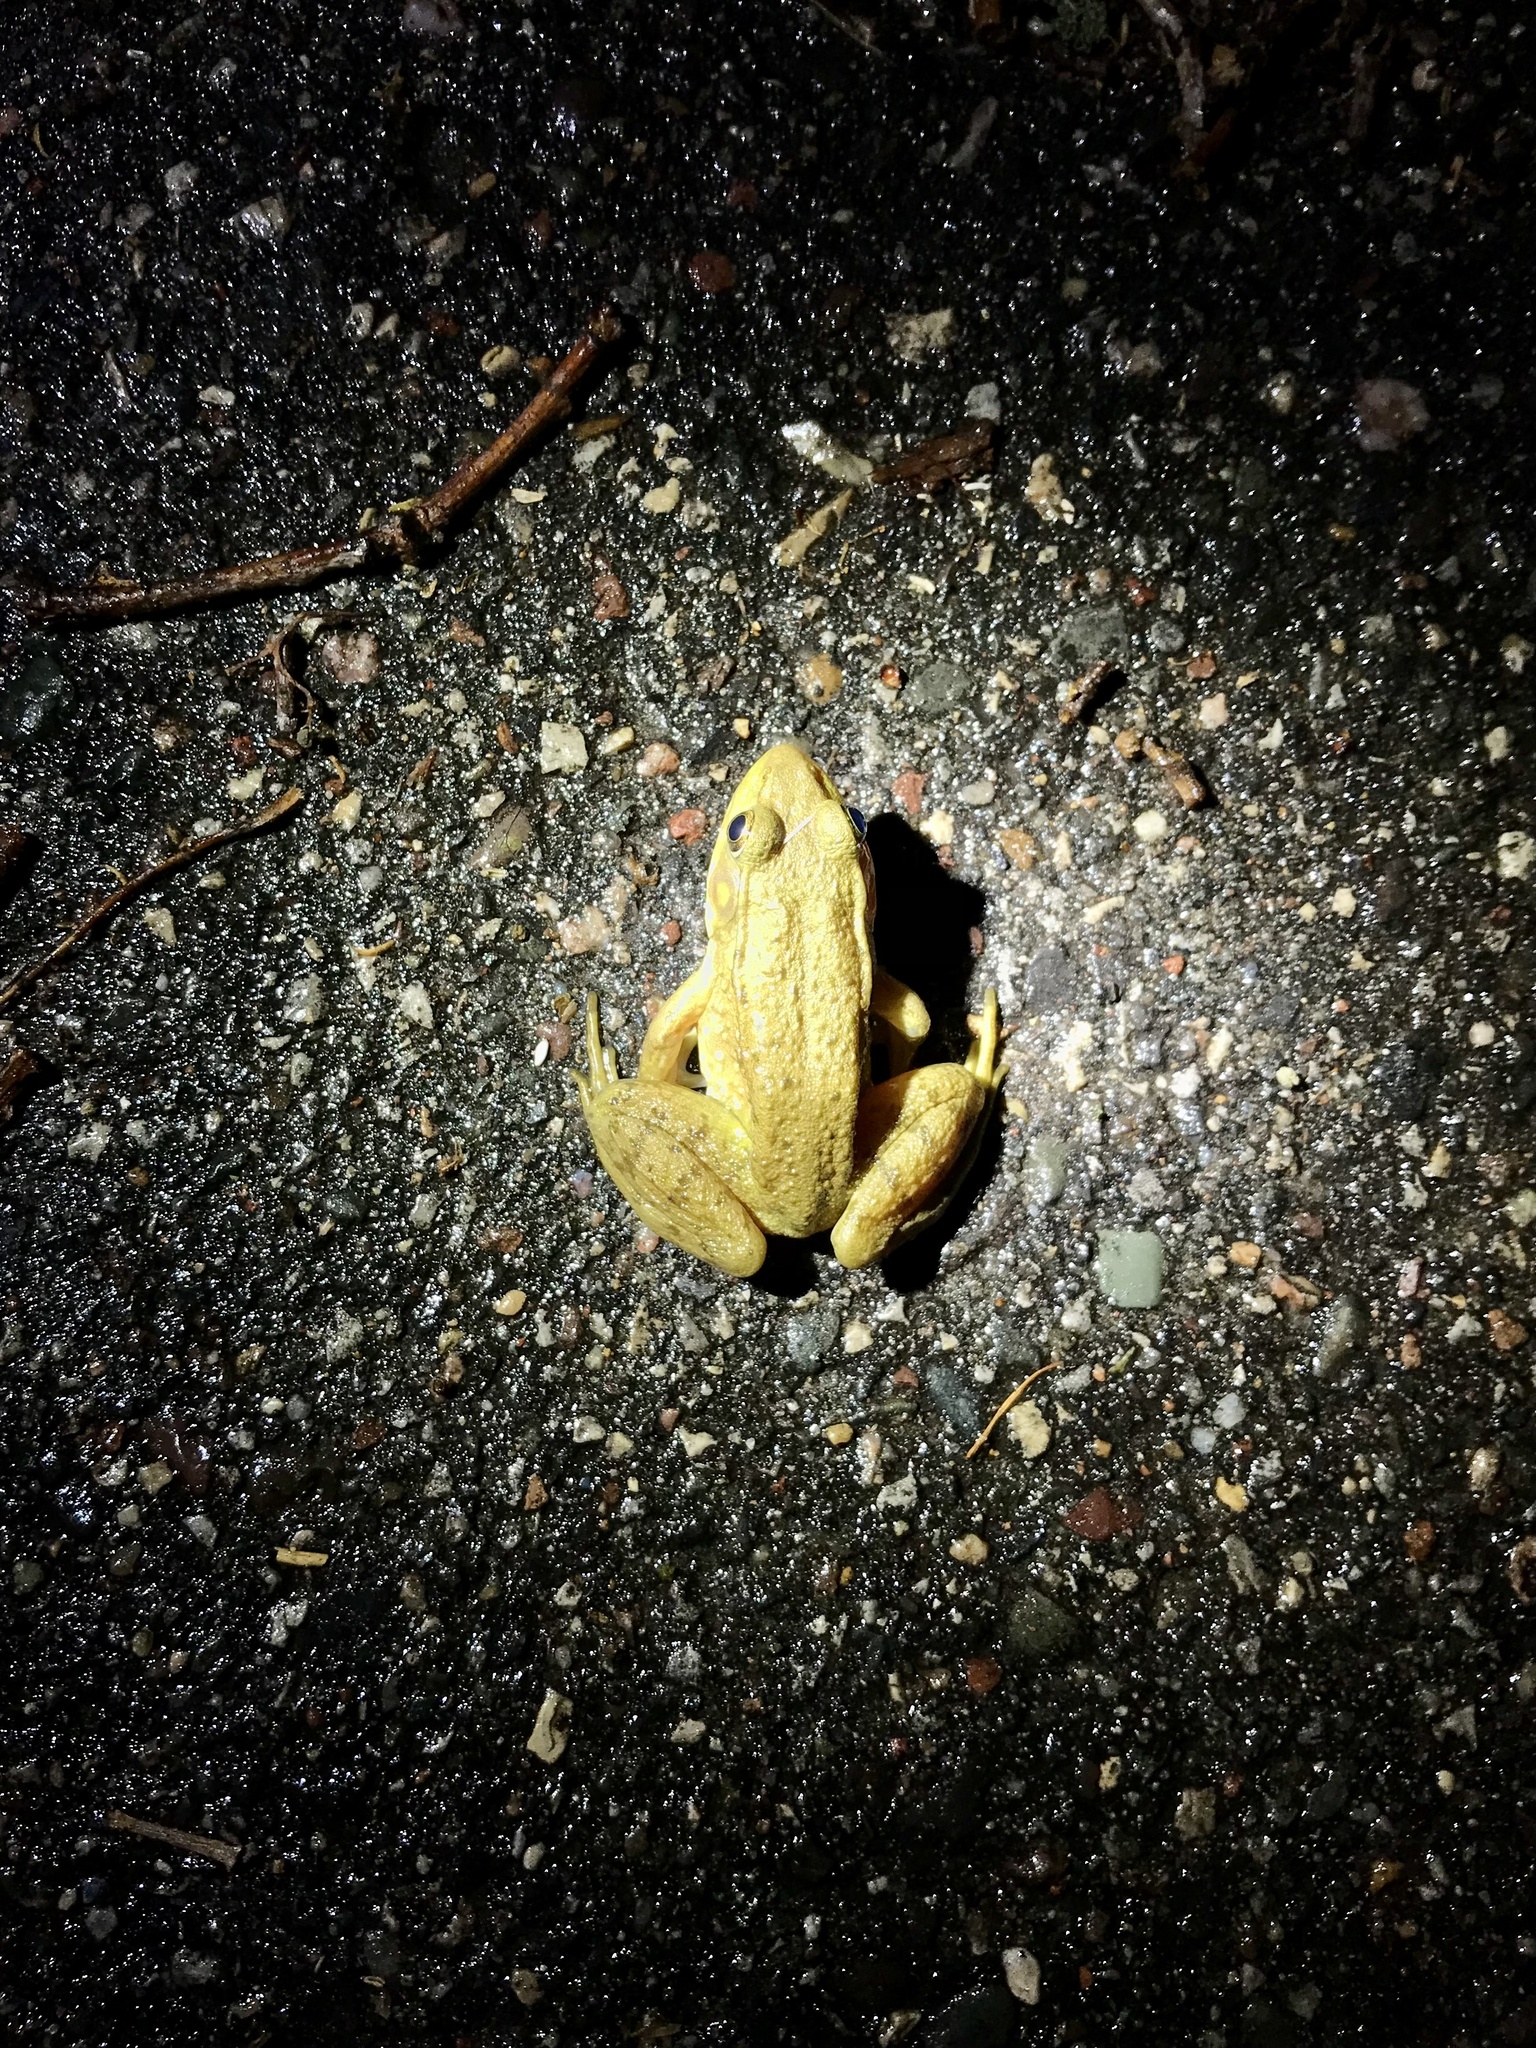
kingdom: Animalia
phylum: Chordata
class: Amphibia
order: Anura
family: Ranidae
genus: Lithobates
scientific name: Lithobates clamitans
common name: Green frog
